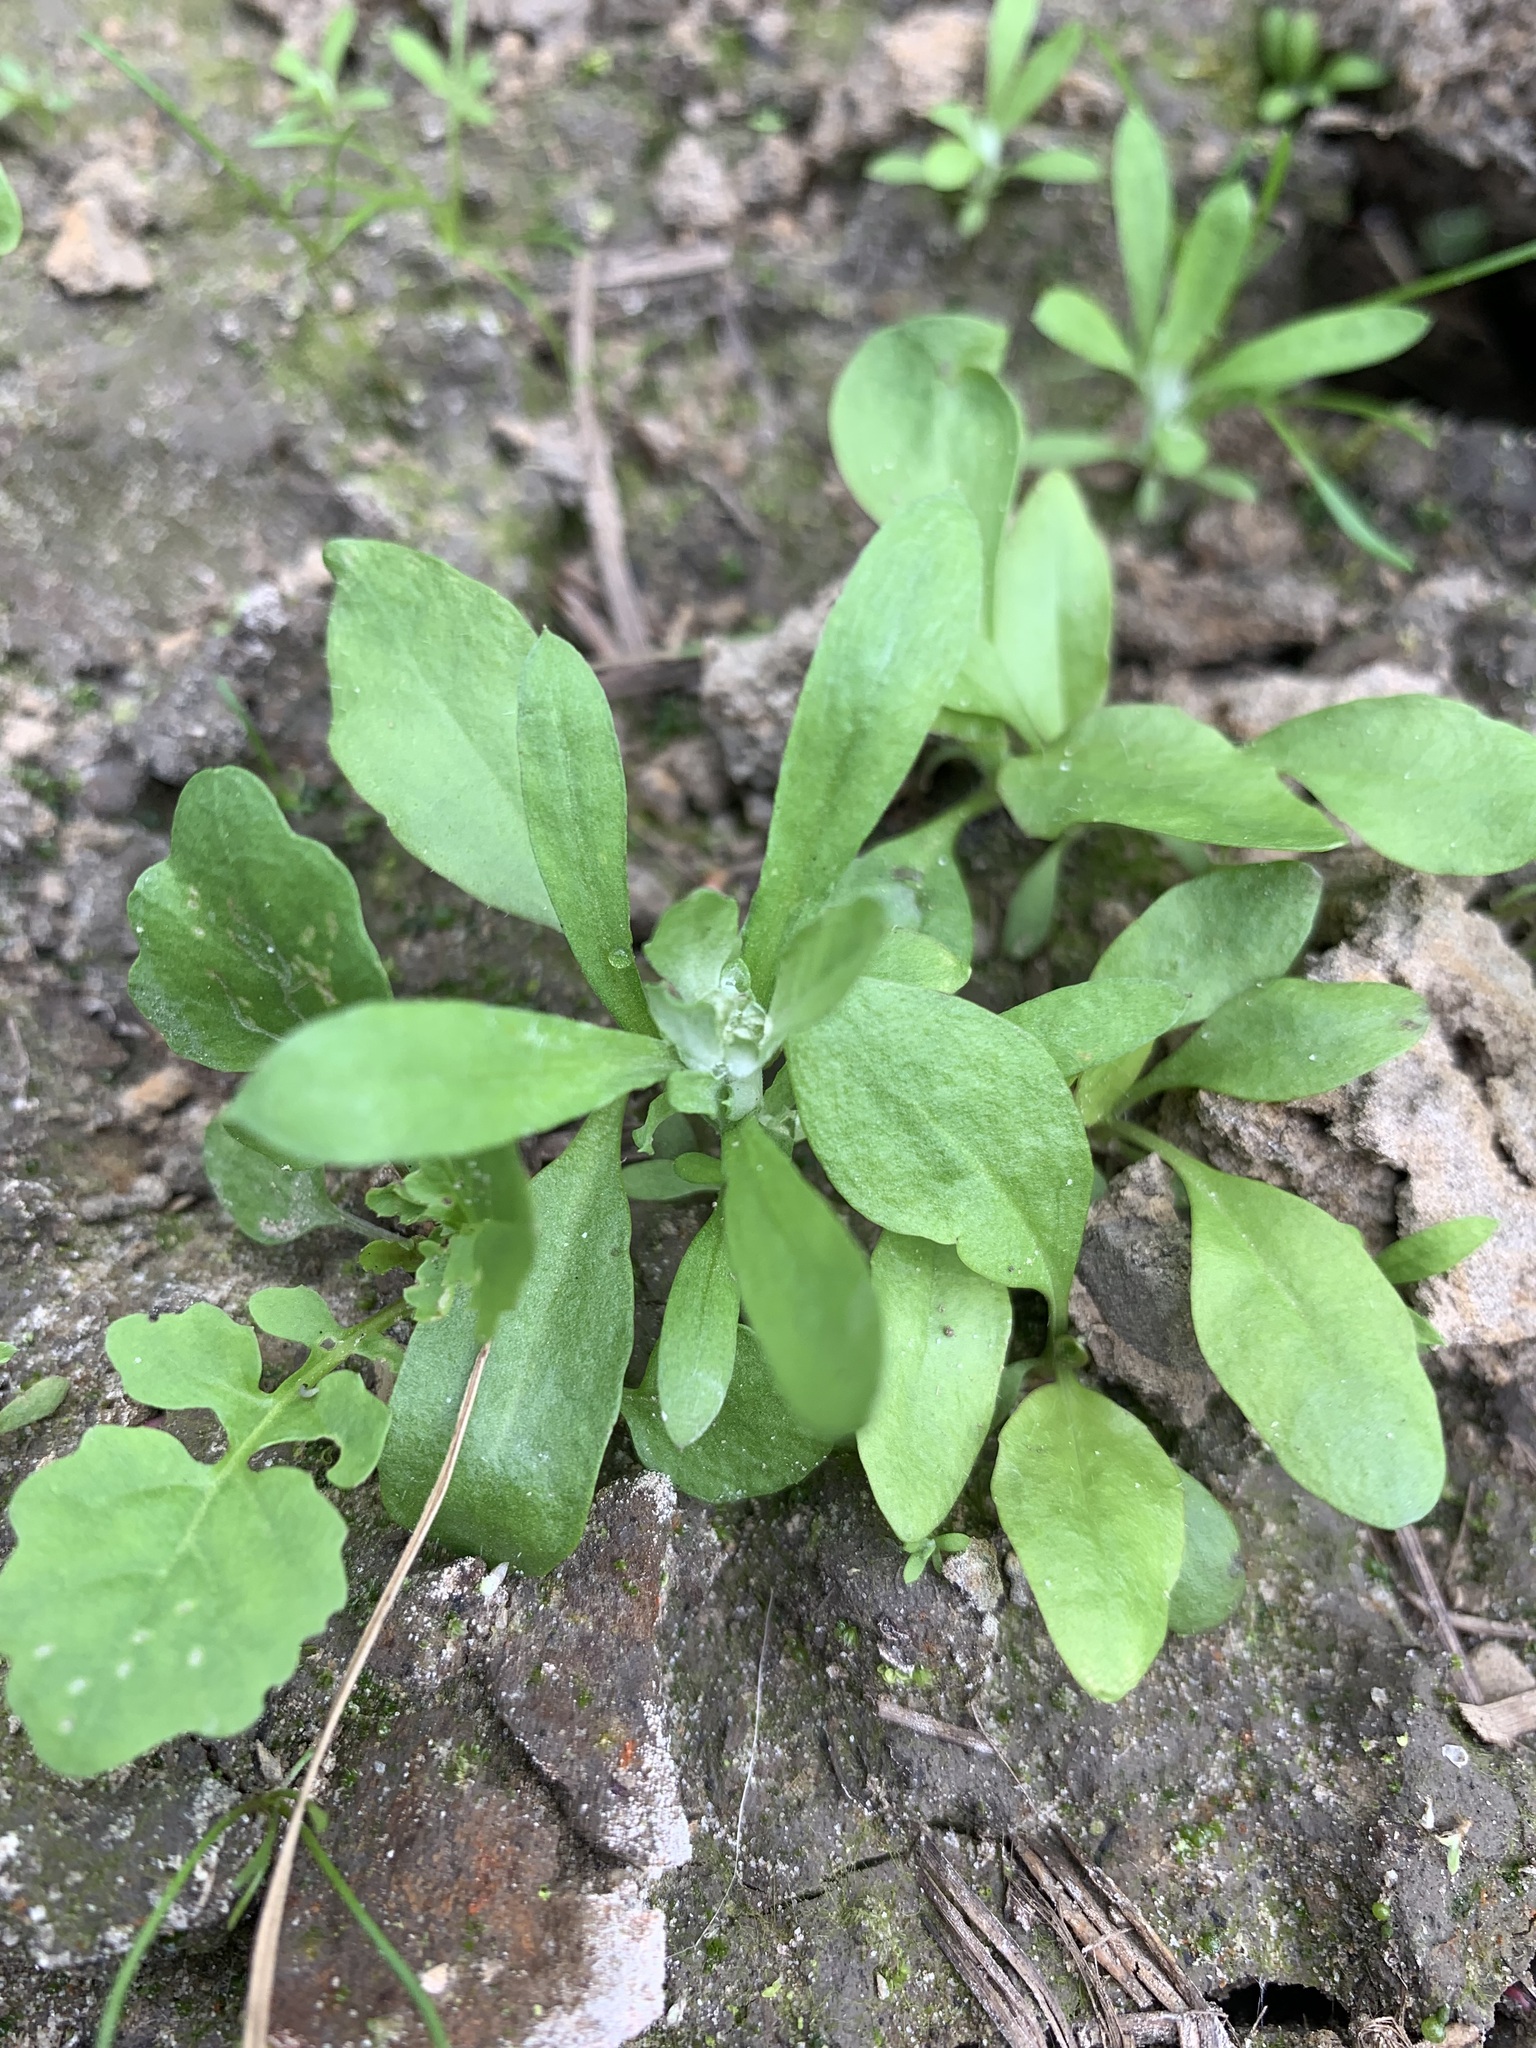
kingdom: Plantae
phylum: Tracheophyta
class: Magnoliopsida
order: Asterales
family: Asteraceae
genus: Gnaphalium
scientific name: Gnaphalium uliginosum
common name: Marsh cudweed
